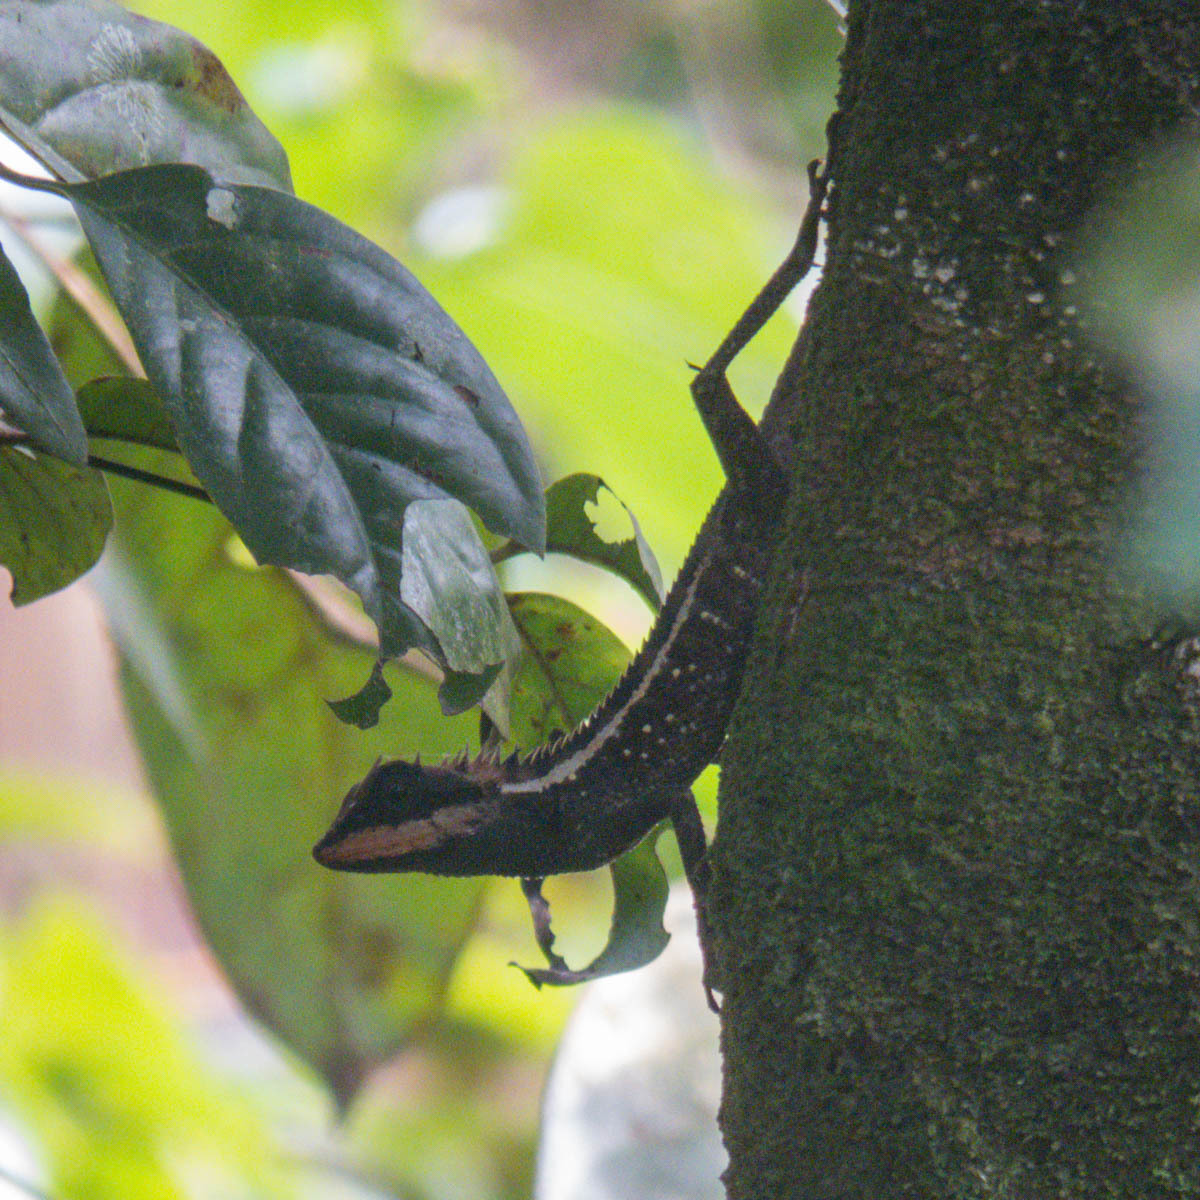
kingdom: Animalia
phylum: Chordata
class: Squamata
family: Agamidae
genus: Calotes
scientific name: Calotes emma
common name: Thailand bloodsucker
